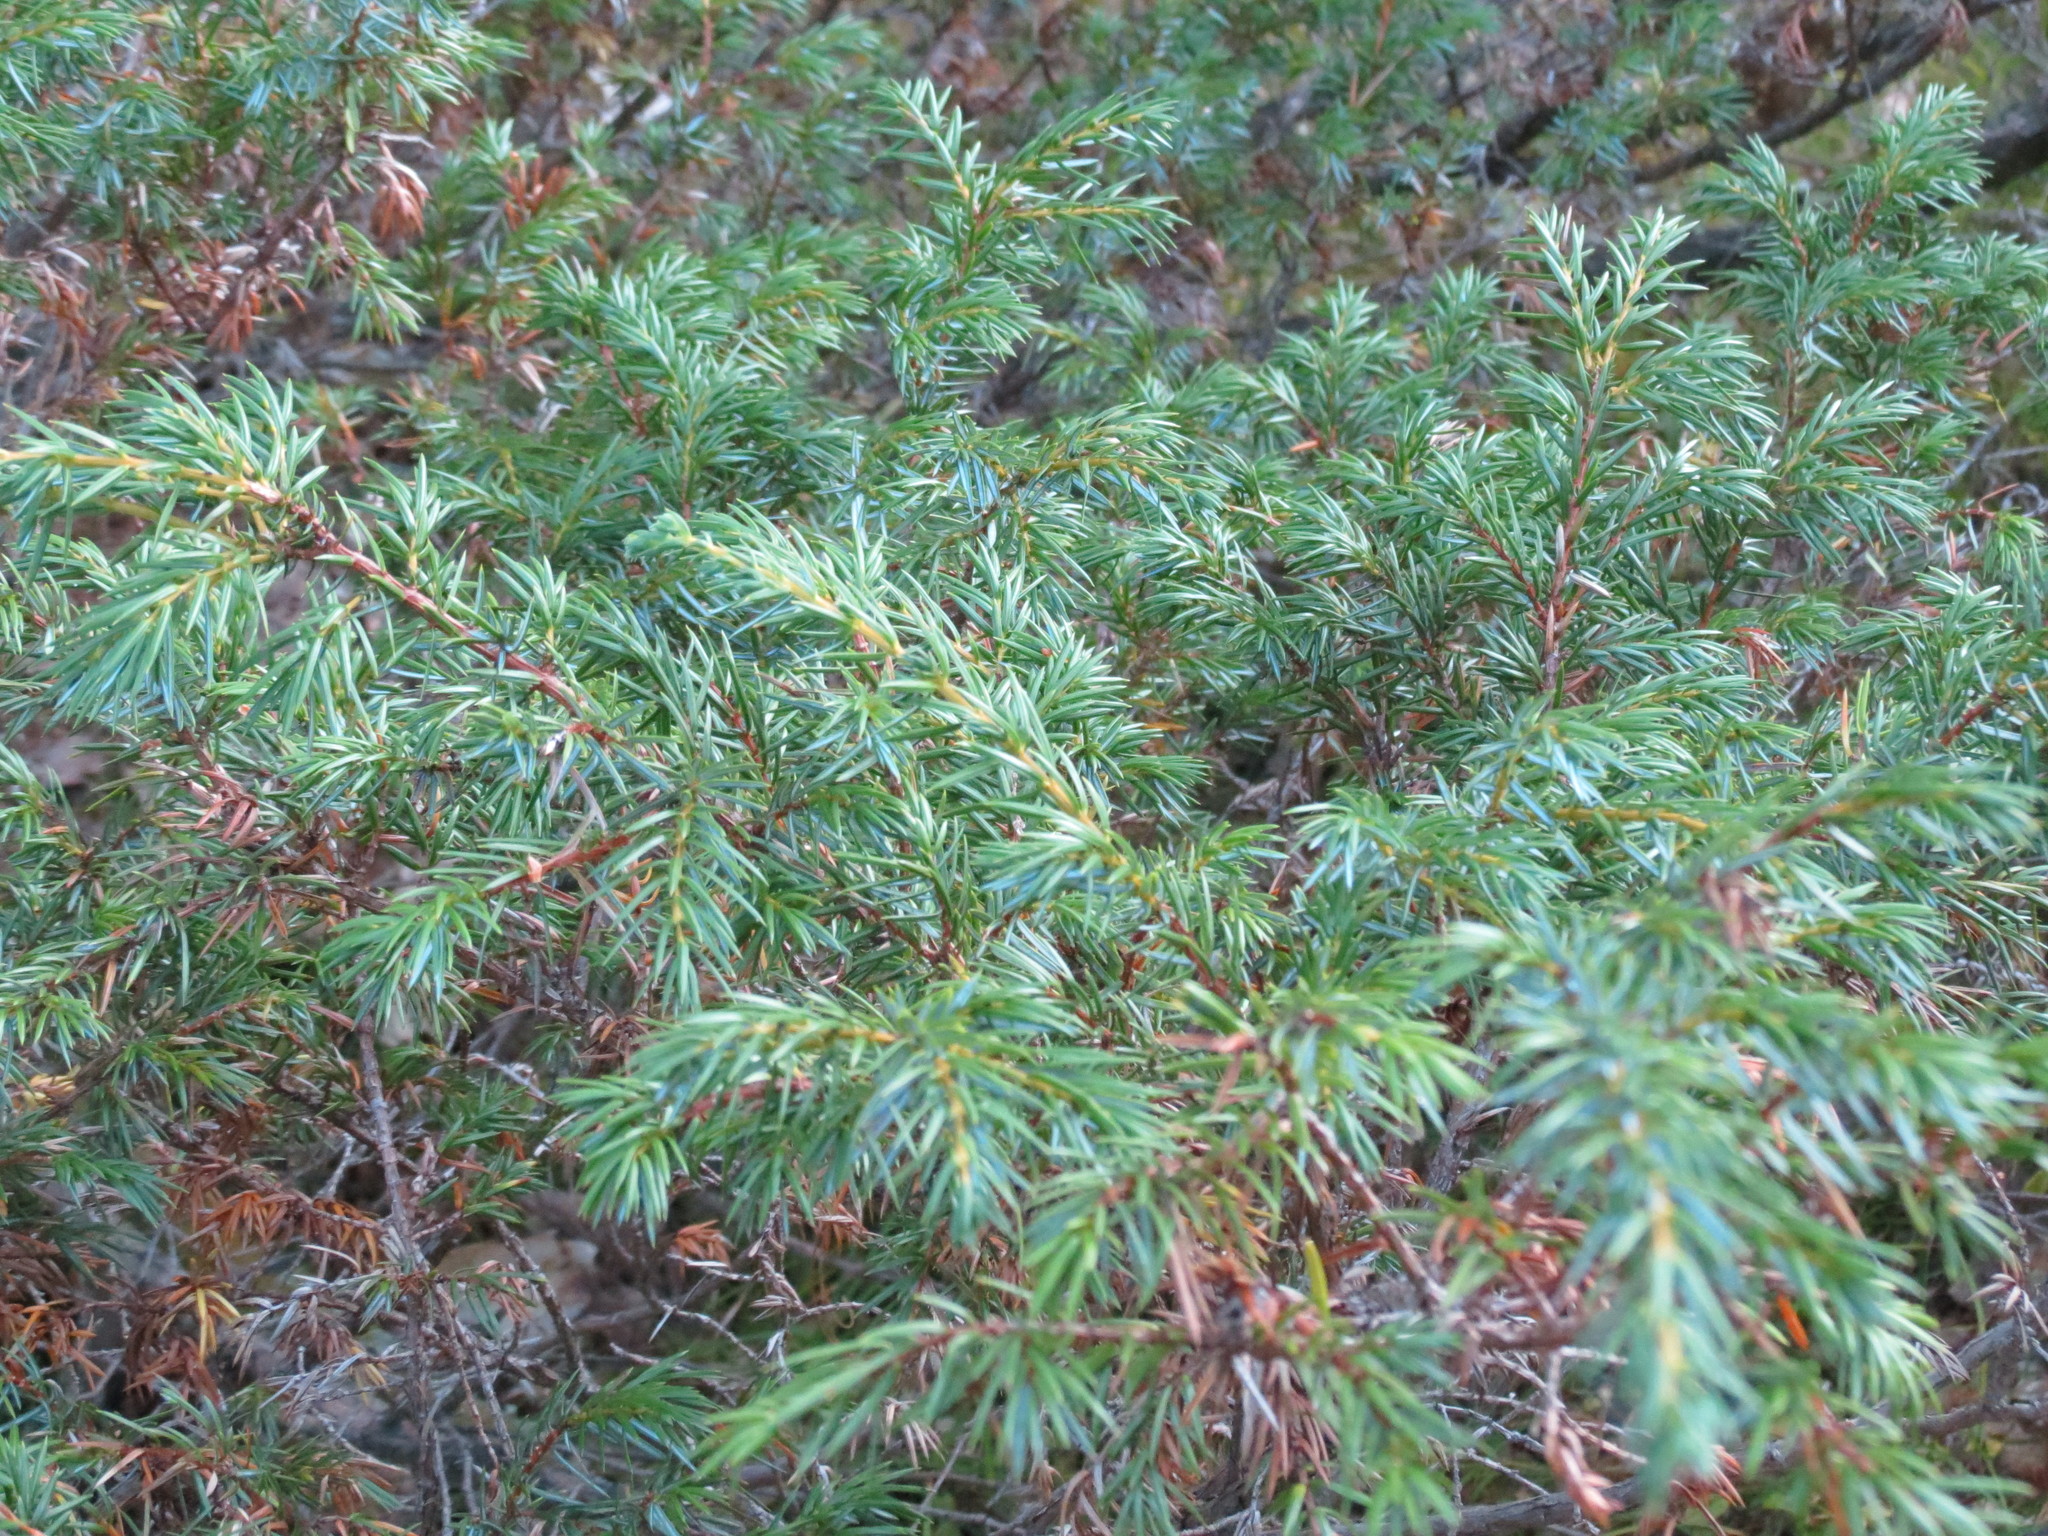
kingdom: Plantae
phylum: Tracheophyta
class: Pinopsida
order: Pinales
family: Cupressaceae
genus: Juniperus
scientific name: Juniperus communis
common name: Common juniper
